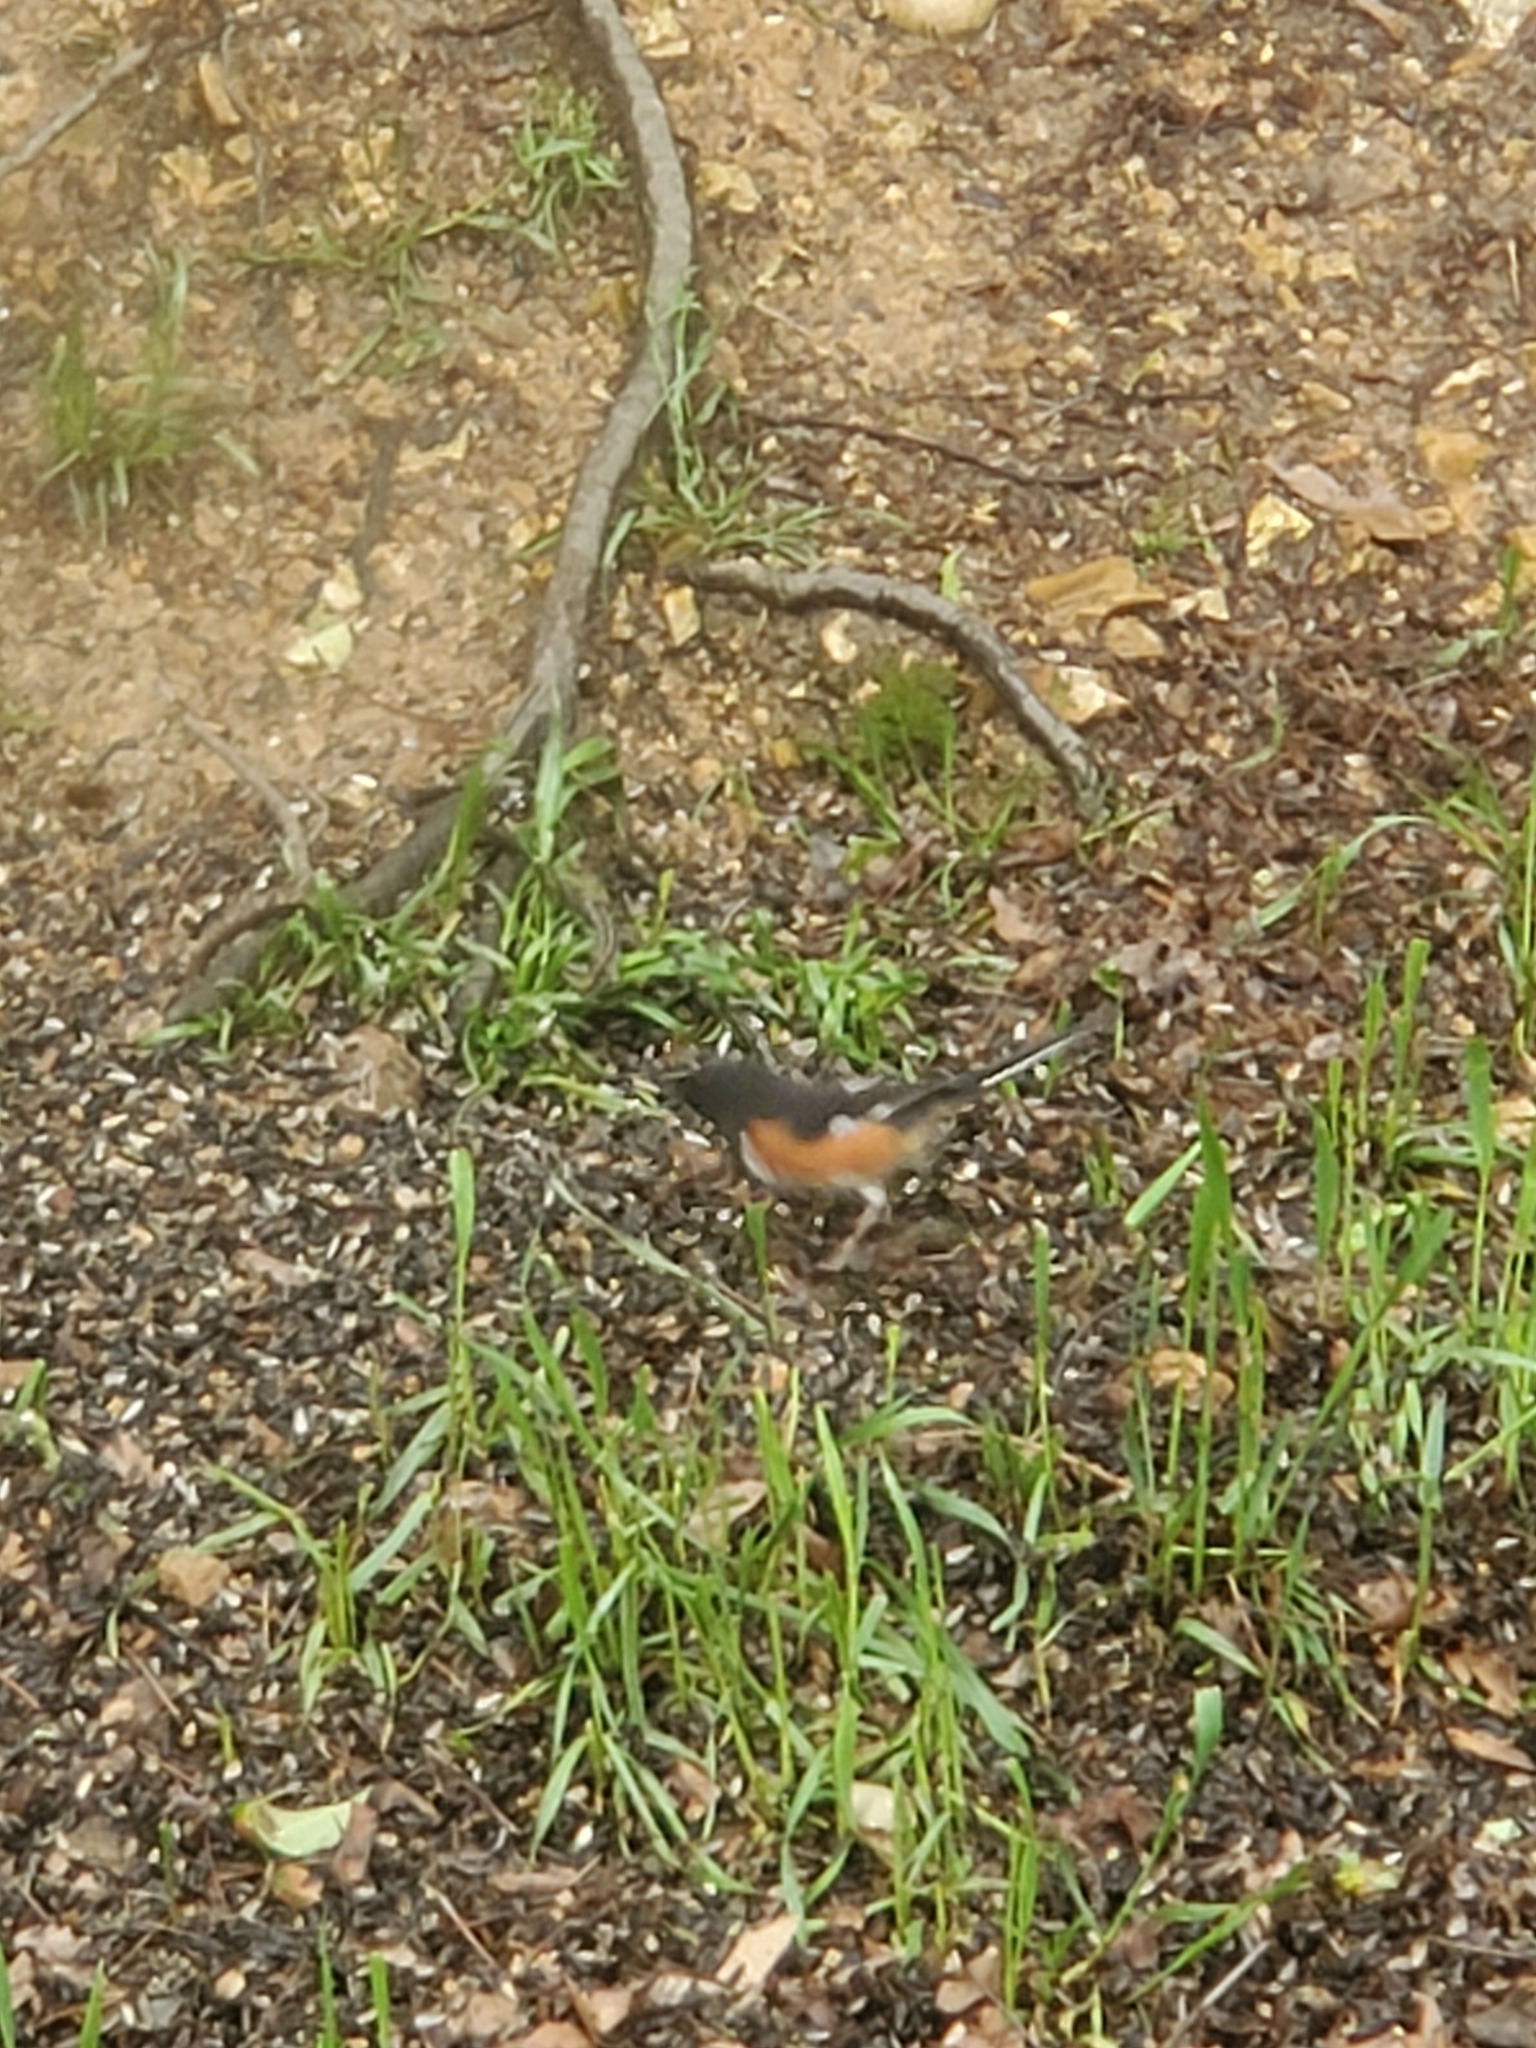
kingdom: Animalia
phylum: Chordata
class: Aves
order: Passeriformes
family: Passerellidae
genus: Pipilo
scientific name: Pipilo erythrophthalmus
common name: Eastern towhee
